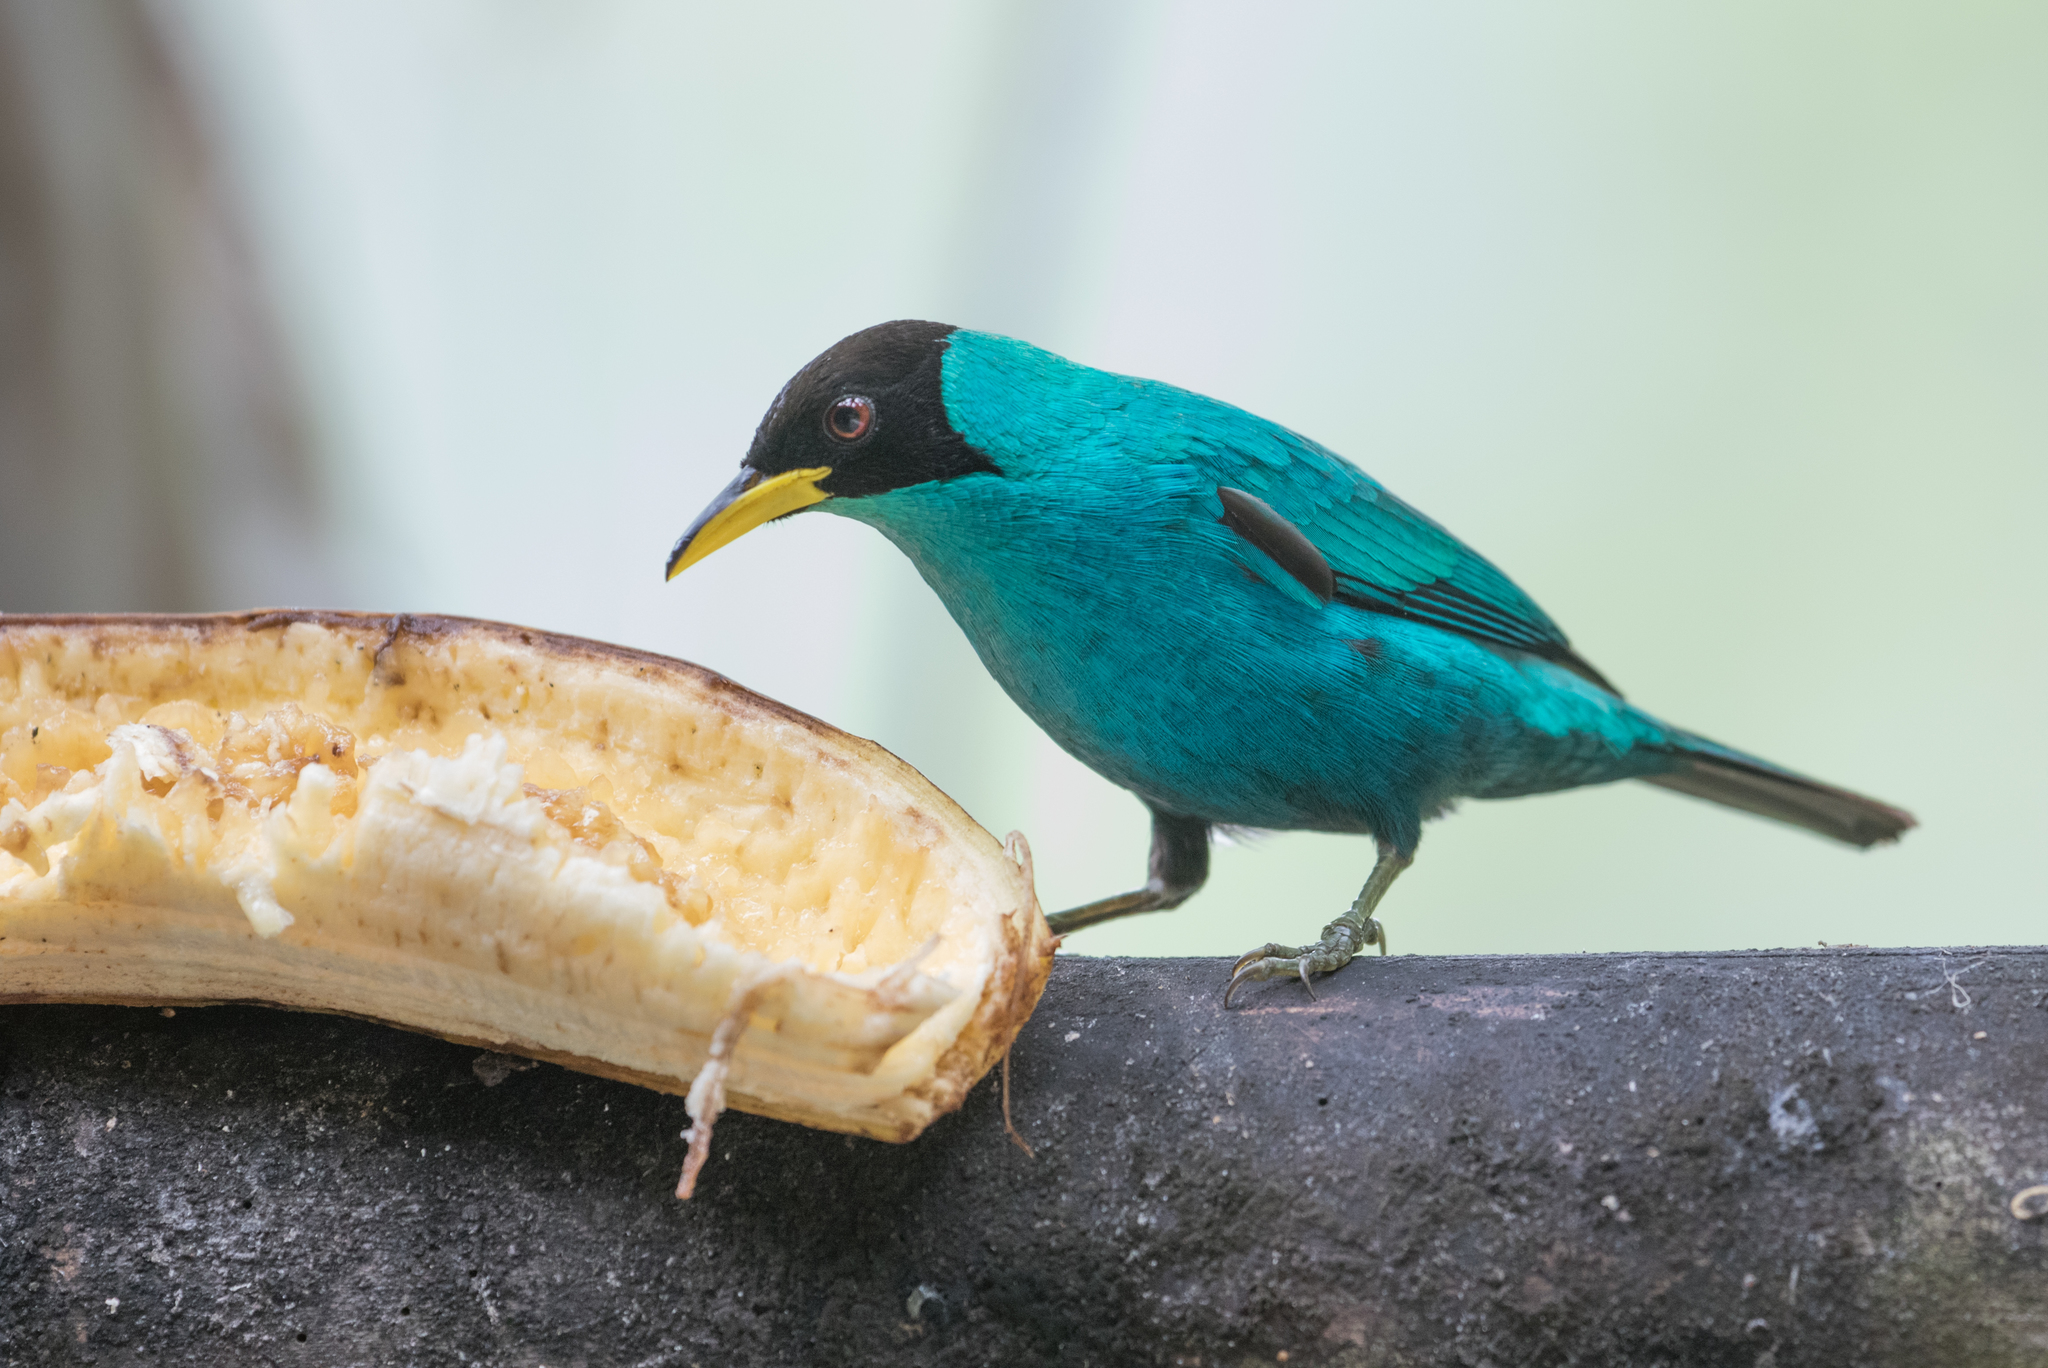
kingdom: Animalia
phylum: Chordata
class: Aves
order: Passeriformes
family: Thraupidae
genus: Chlorophanes
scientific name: Chlorophanes spiza
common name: Green honeycreeper
